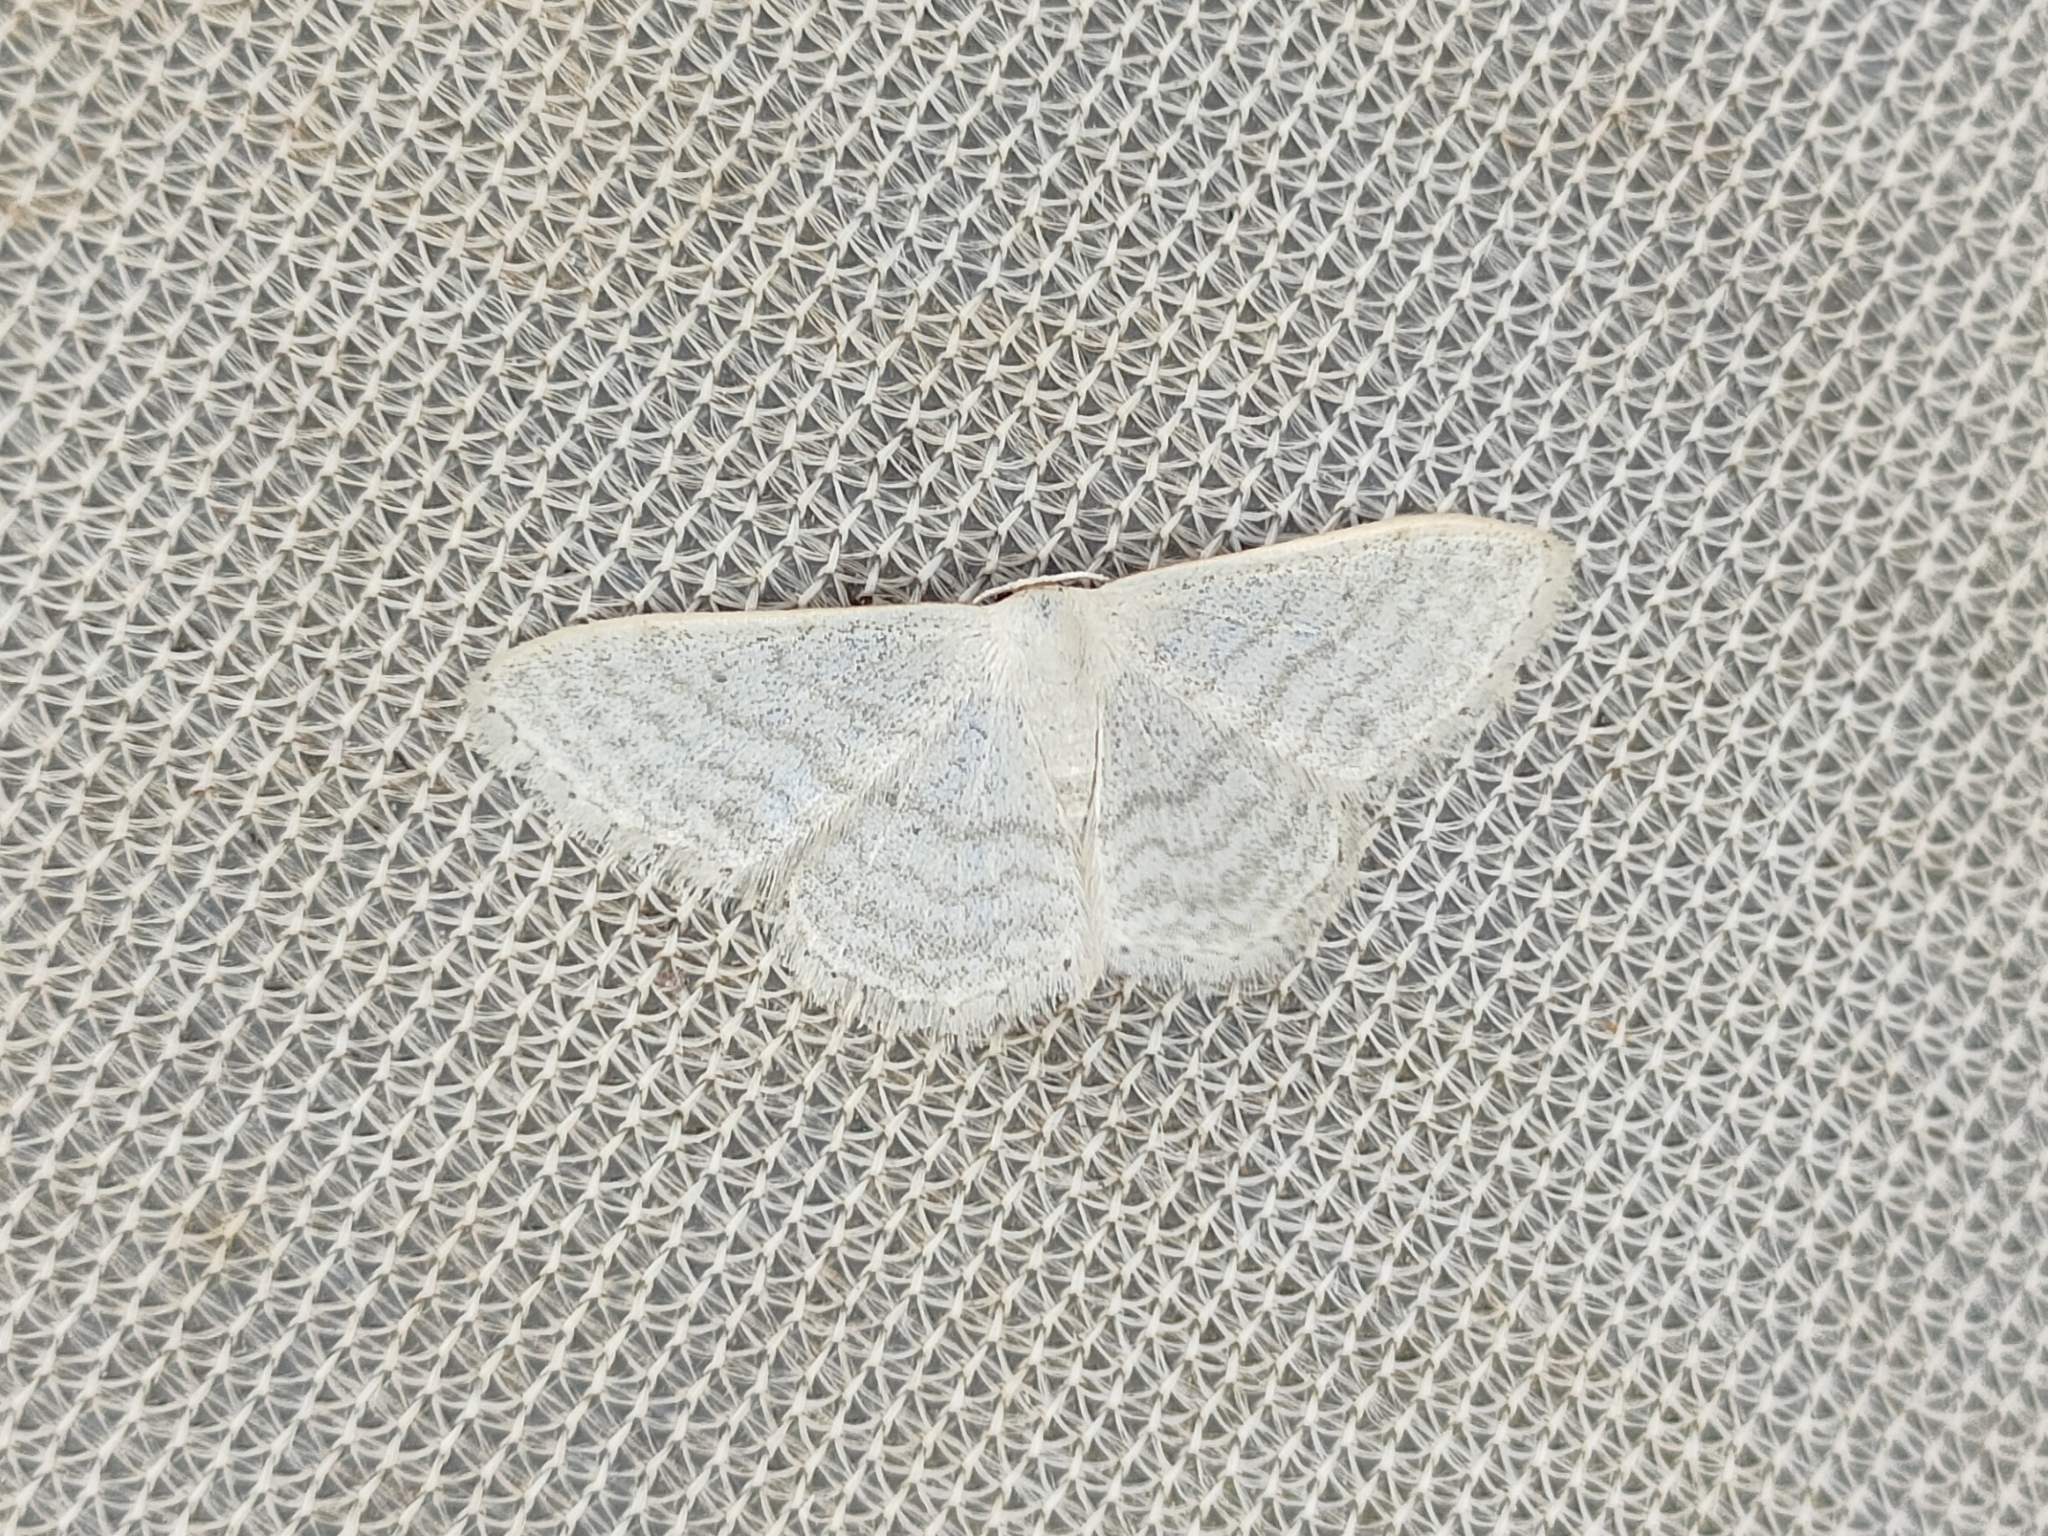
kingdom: Animalia
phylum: Arthropoda
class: Insecta
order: Lepidoptera
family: Geometridae
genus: Idaea
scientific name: Idaea subsericeata
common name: Satin wave
